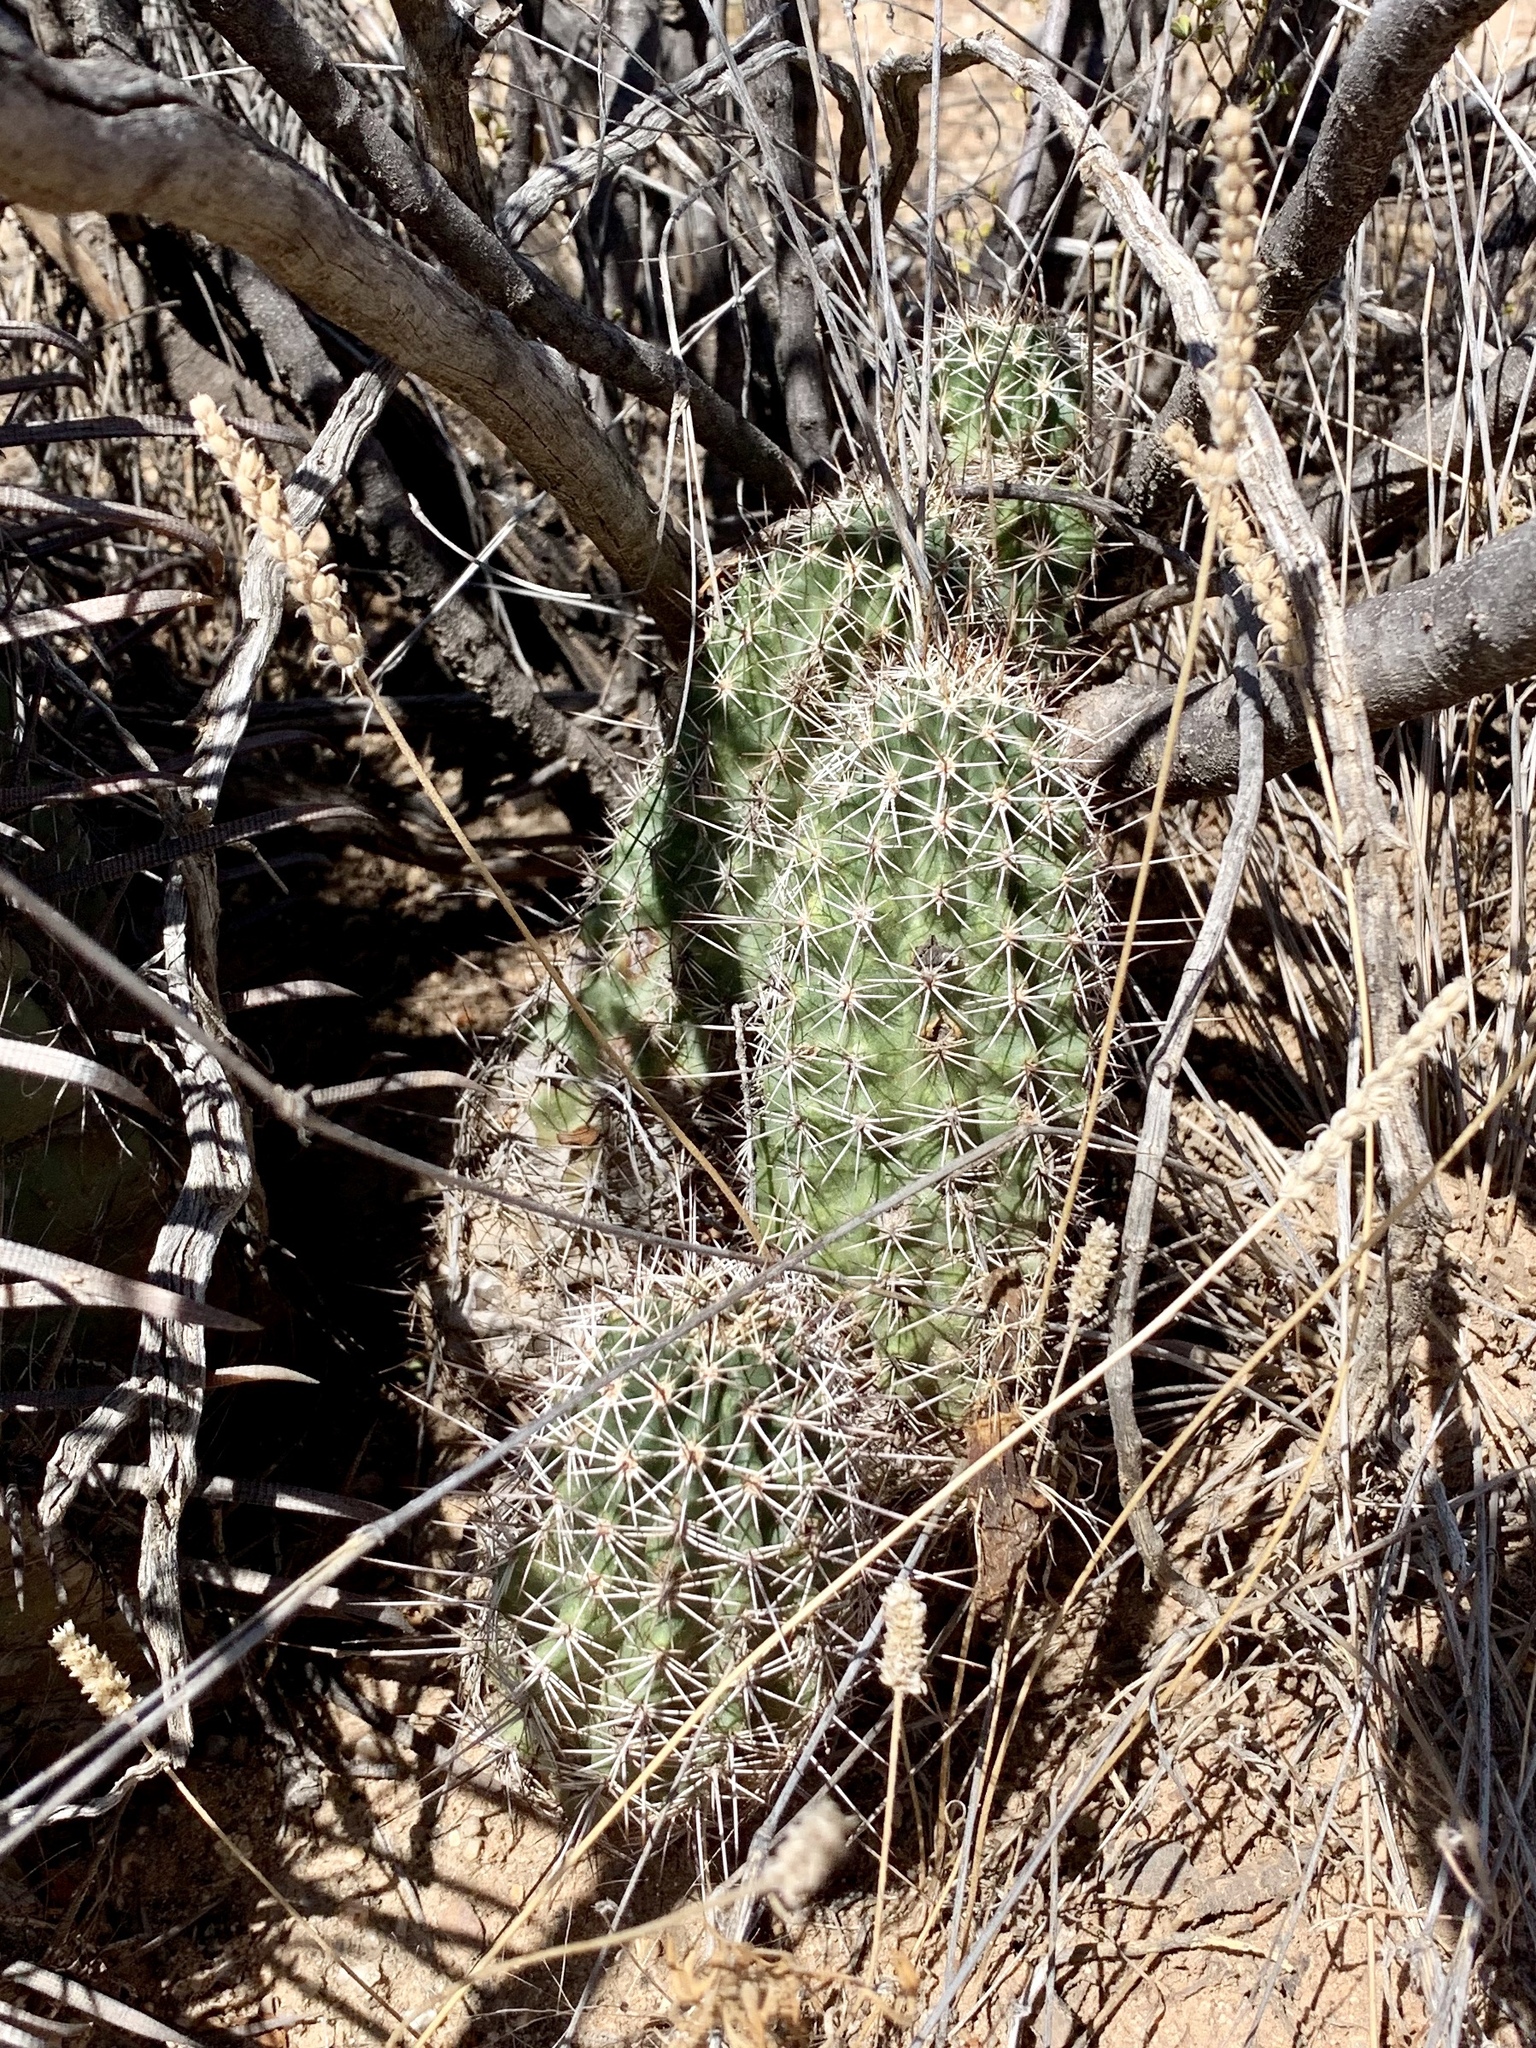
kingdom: Plantae
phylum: Tracheophyta
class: Magnoliopsida
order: Caryophyllales
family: Cactaceae
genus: Echinocereus
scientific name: Echinocereus fasciculatus
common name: Bundle hedgehog
